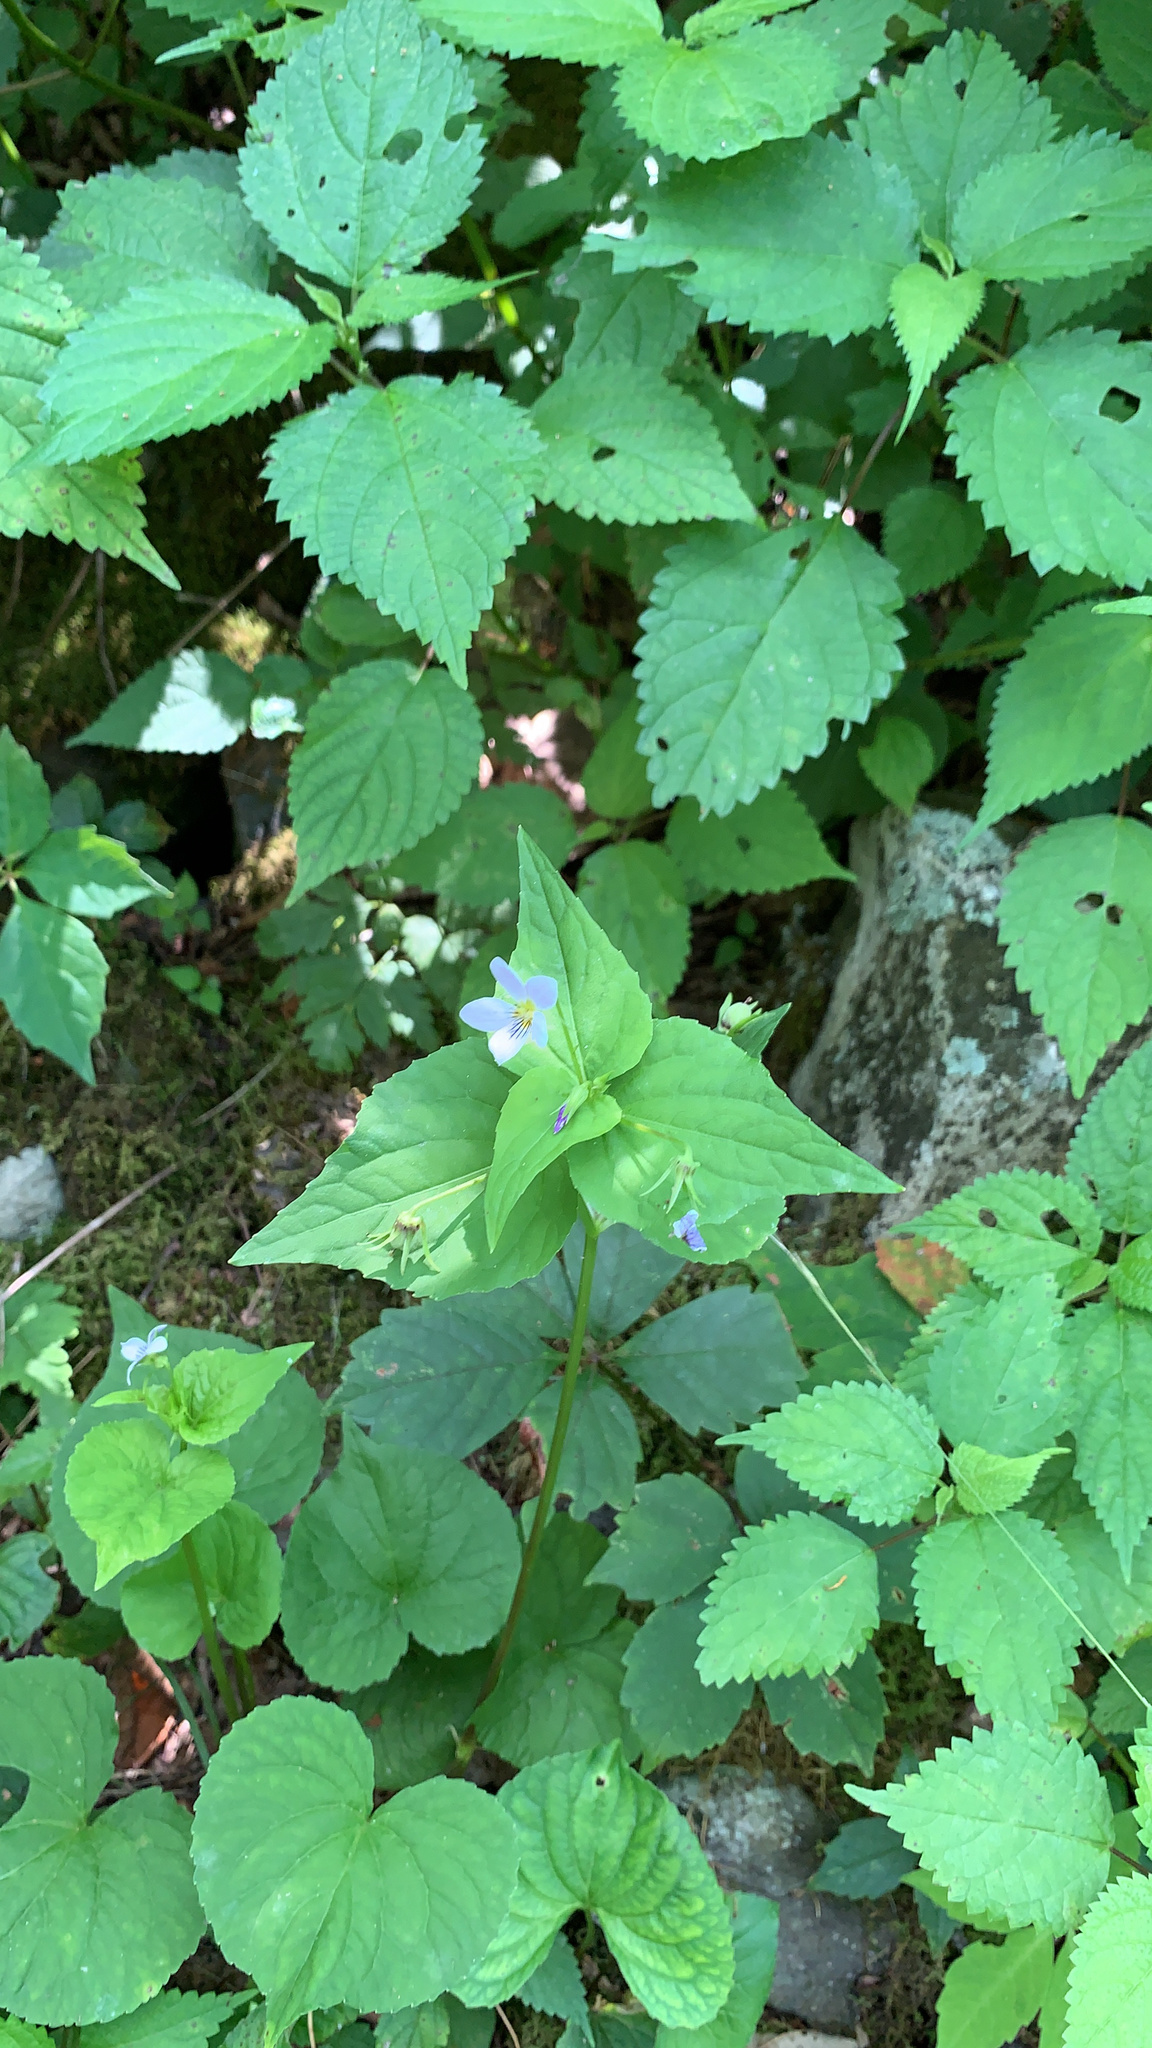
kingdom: Plantae
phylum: Tracheophyta
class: Magnoliopsida
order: Malpighiales
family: Violaceae
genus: Viola
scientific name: Viola canadensis
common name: Canada violet
